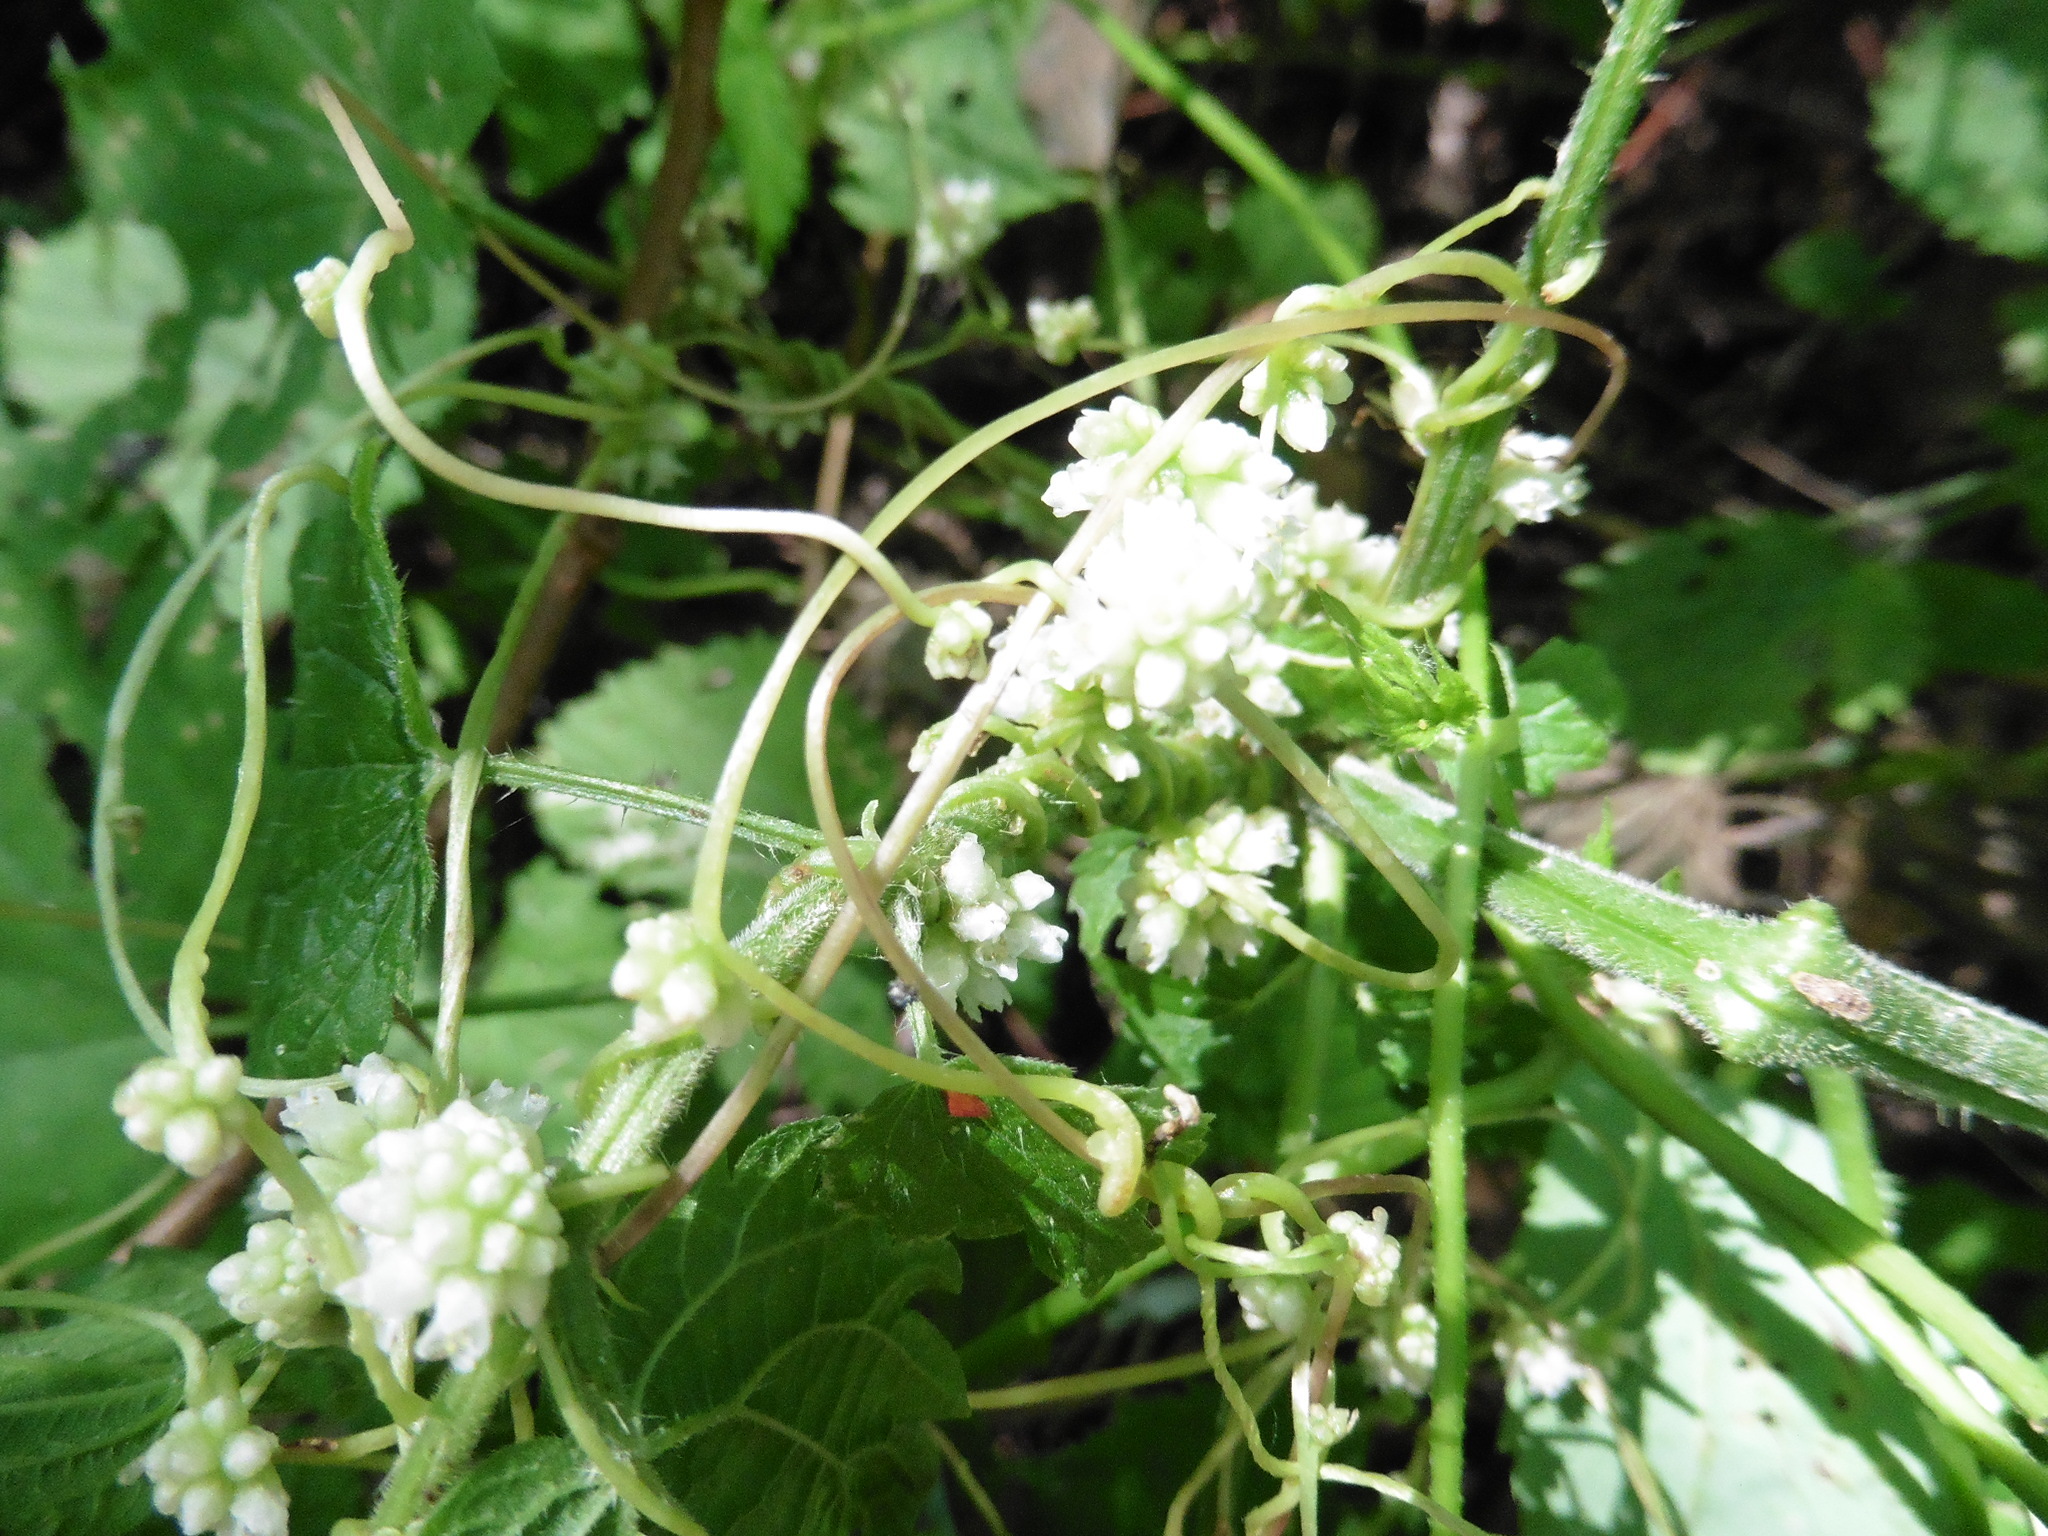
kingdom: Plantae
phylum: Tracheophyta
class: Magnoliopsida
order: Solanales
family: Convolvulaceae
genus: Cuscuta
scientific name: Cuscuta europaea
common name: Greater dodder
